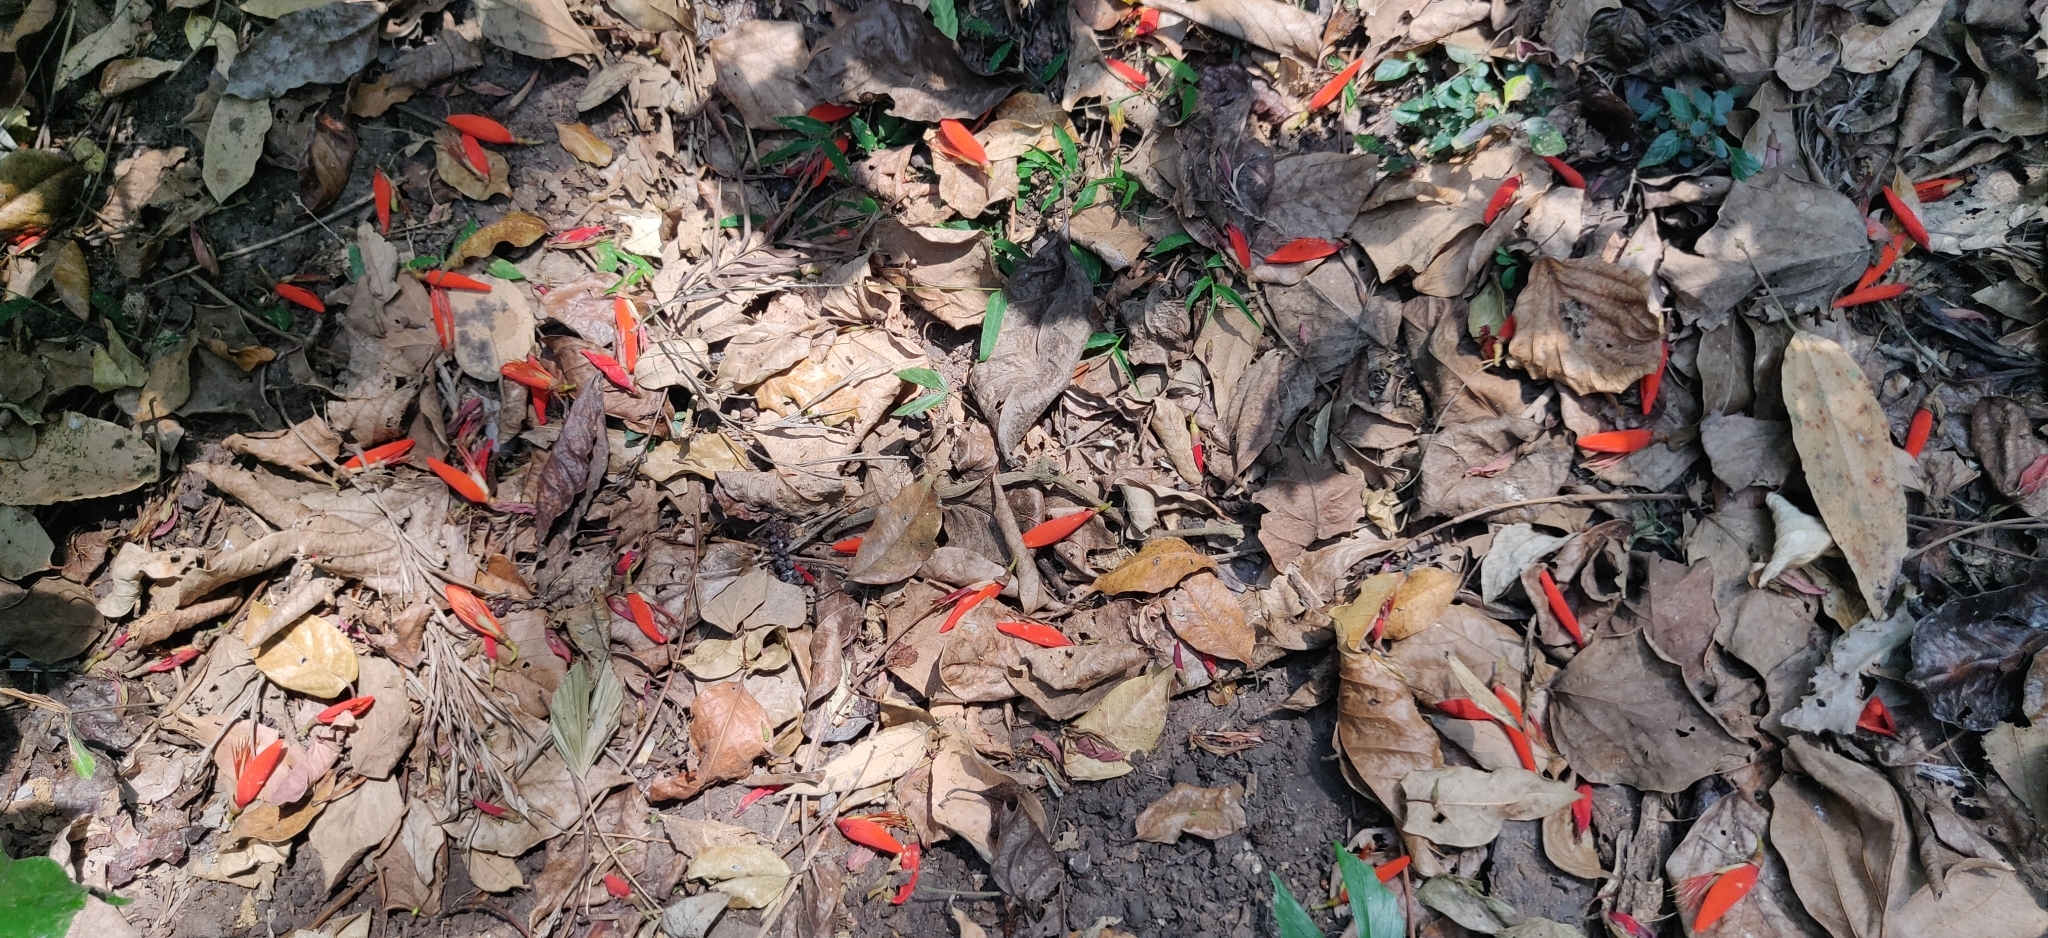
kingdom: Plantae
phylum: Tracheophyta
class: Magnoliopsida
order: Fabales
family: Fabaceae
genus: Erythrina
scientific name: Erythrina variegata
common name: Indian coral tree
